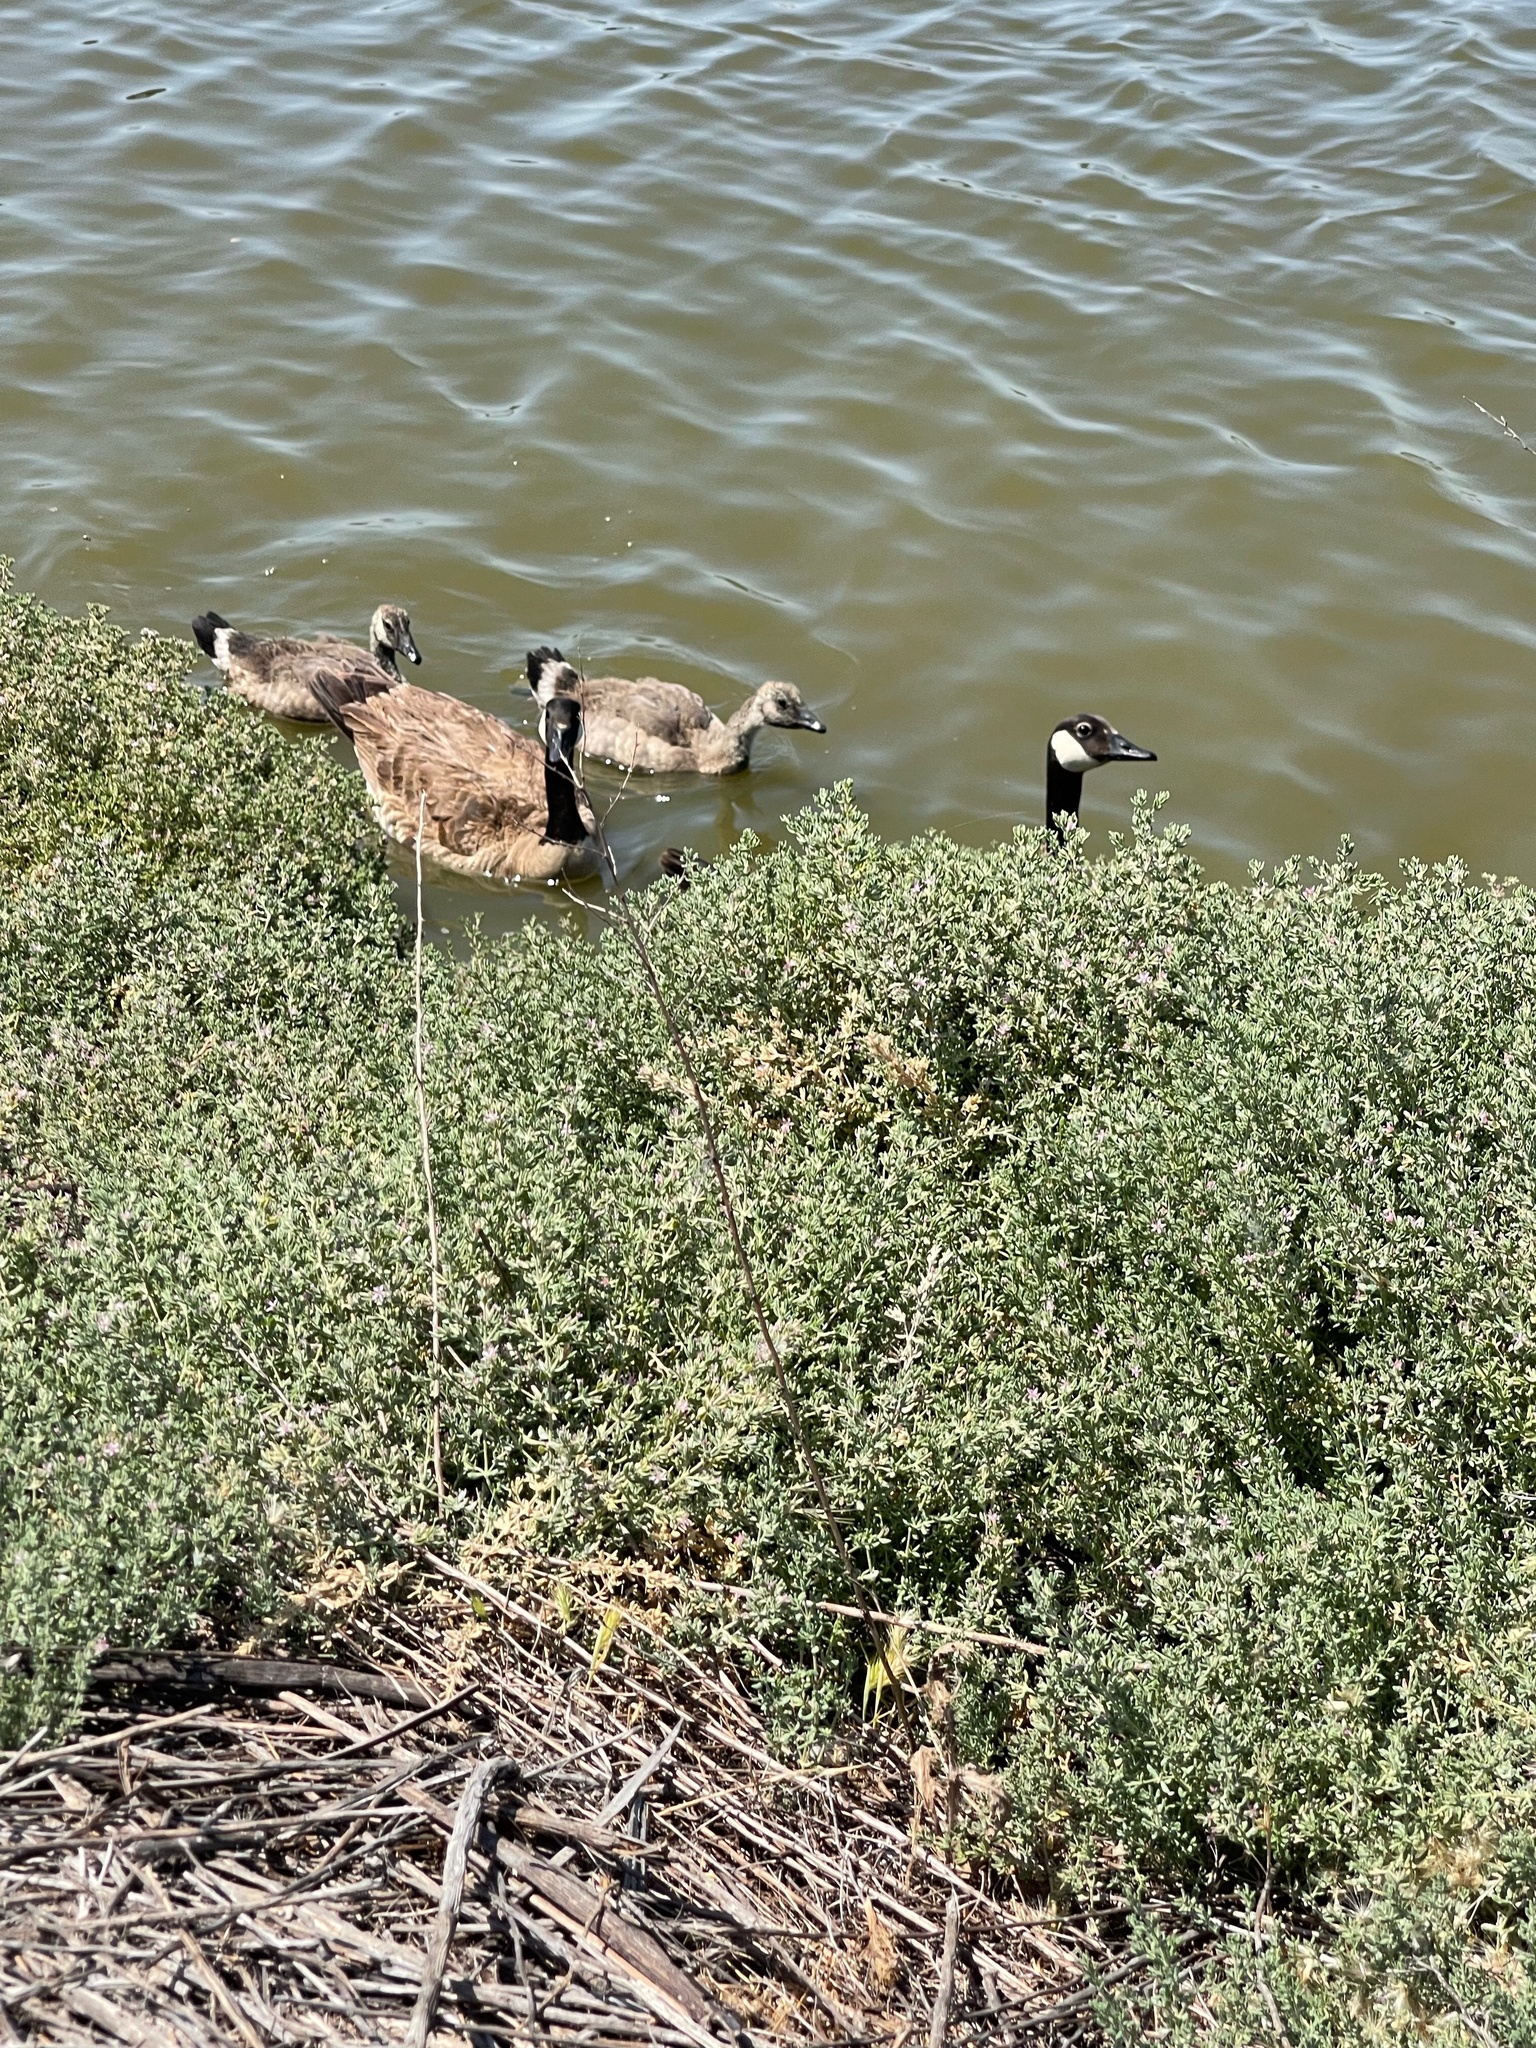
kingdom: Animalia
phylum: Chordata
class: Aves
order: Anseriformes
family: Anatidae
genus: Branta
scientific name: Branta canadensis
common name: Canada goose
